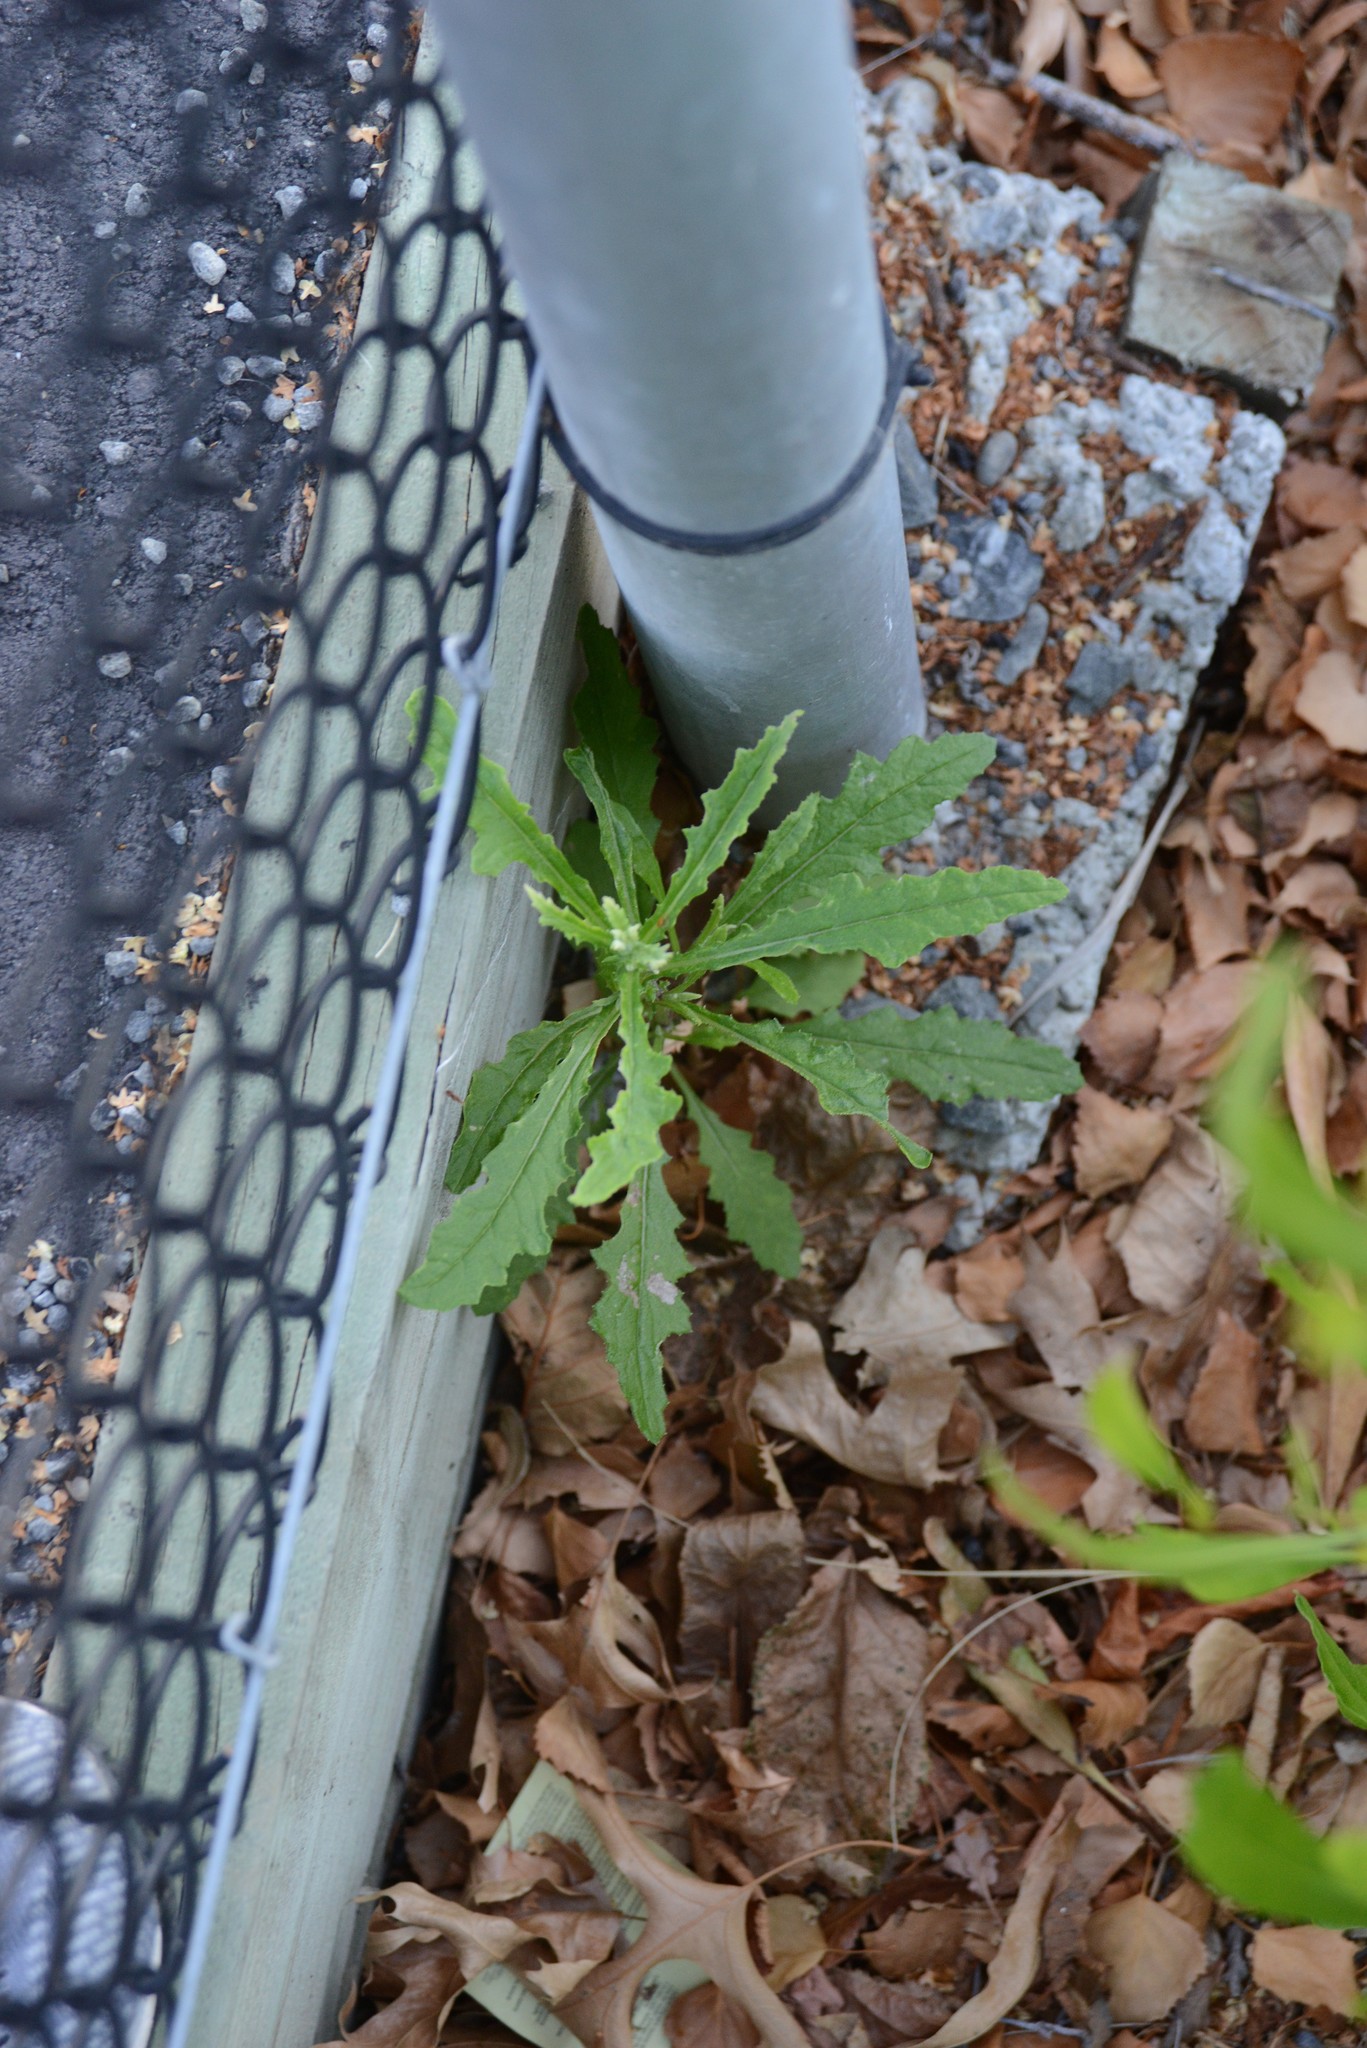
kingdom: Plantae
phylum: Tracheophyta
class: Magnoliopsida
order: Asterales
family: Asteraceae
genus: Senecio
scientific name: Senecio hispidulus
